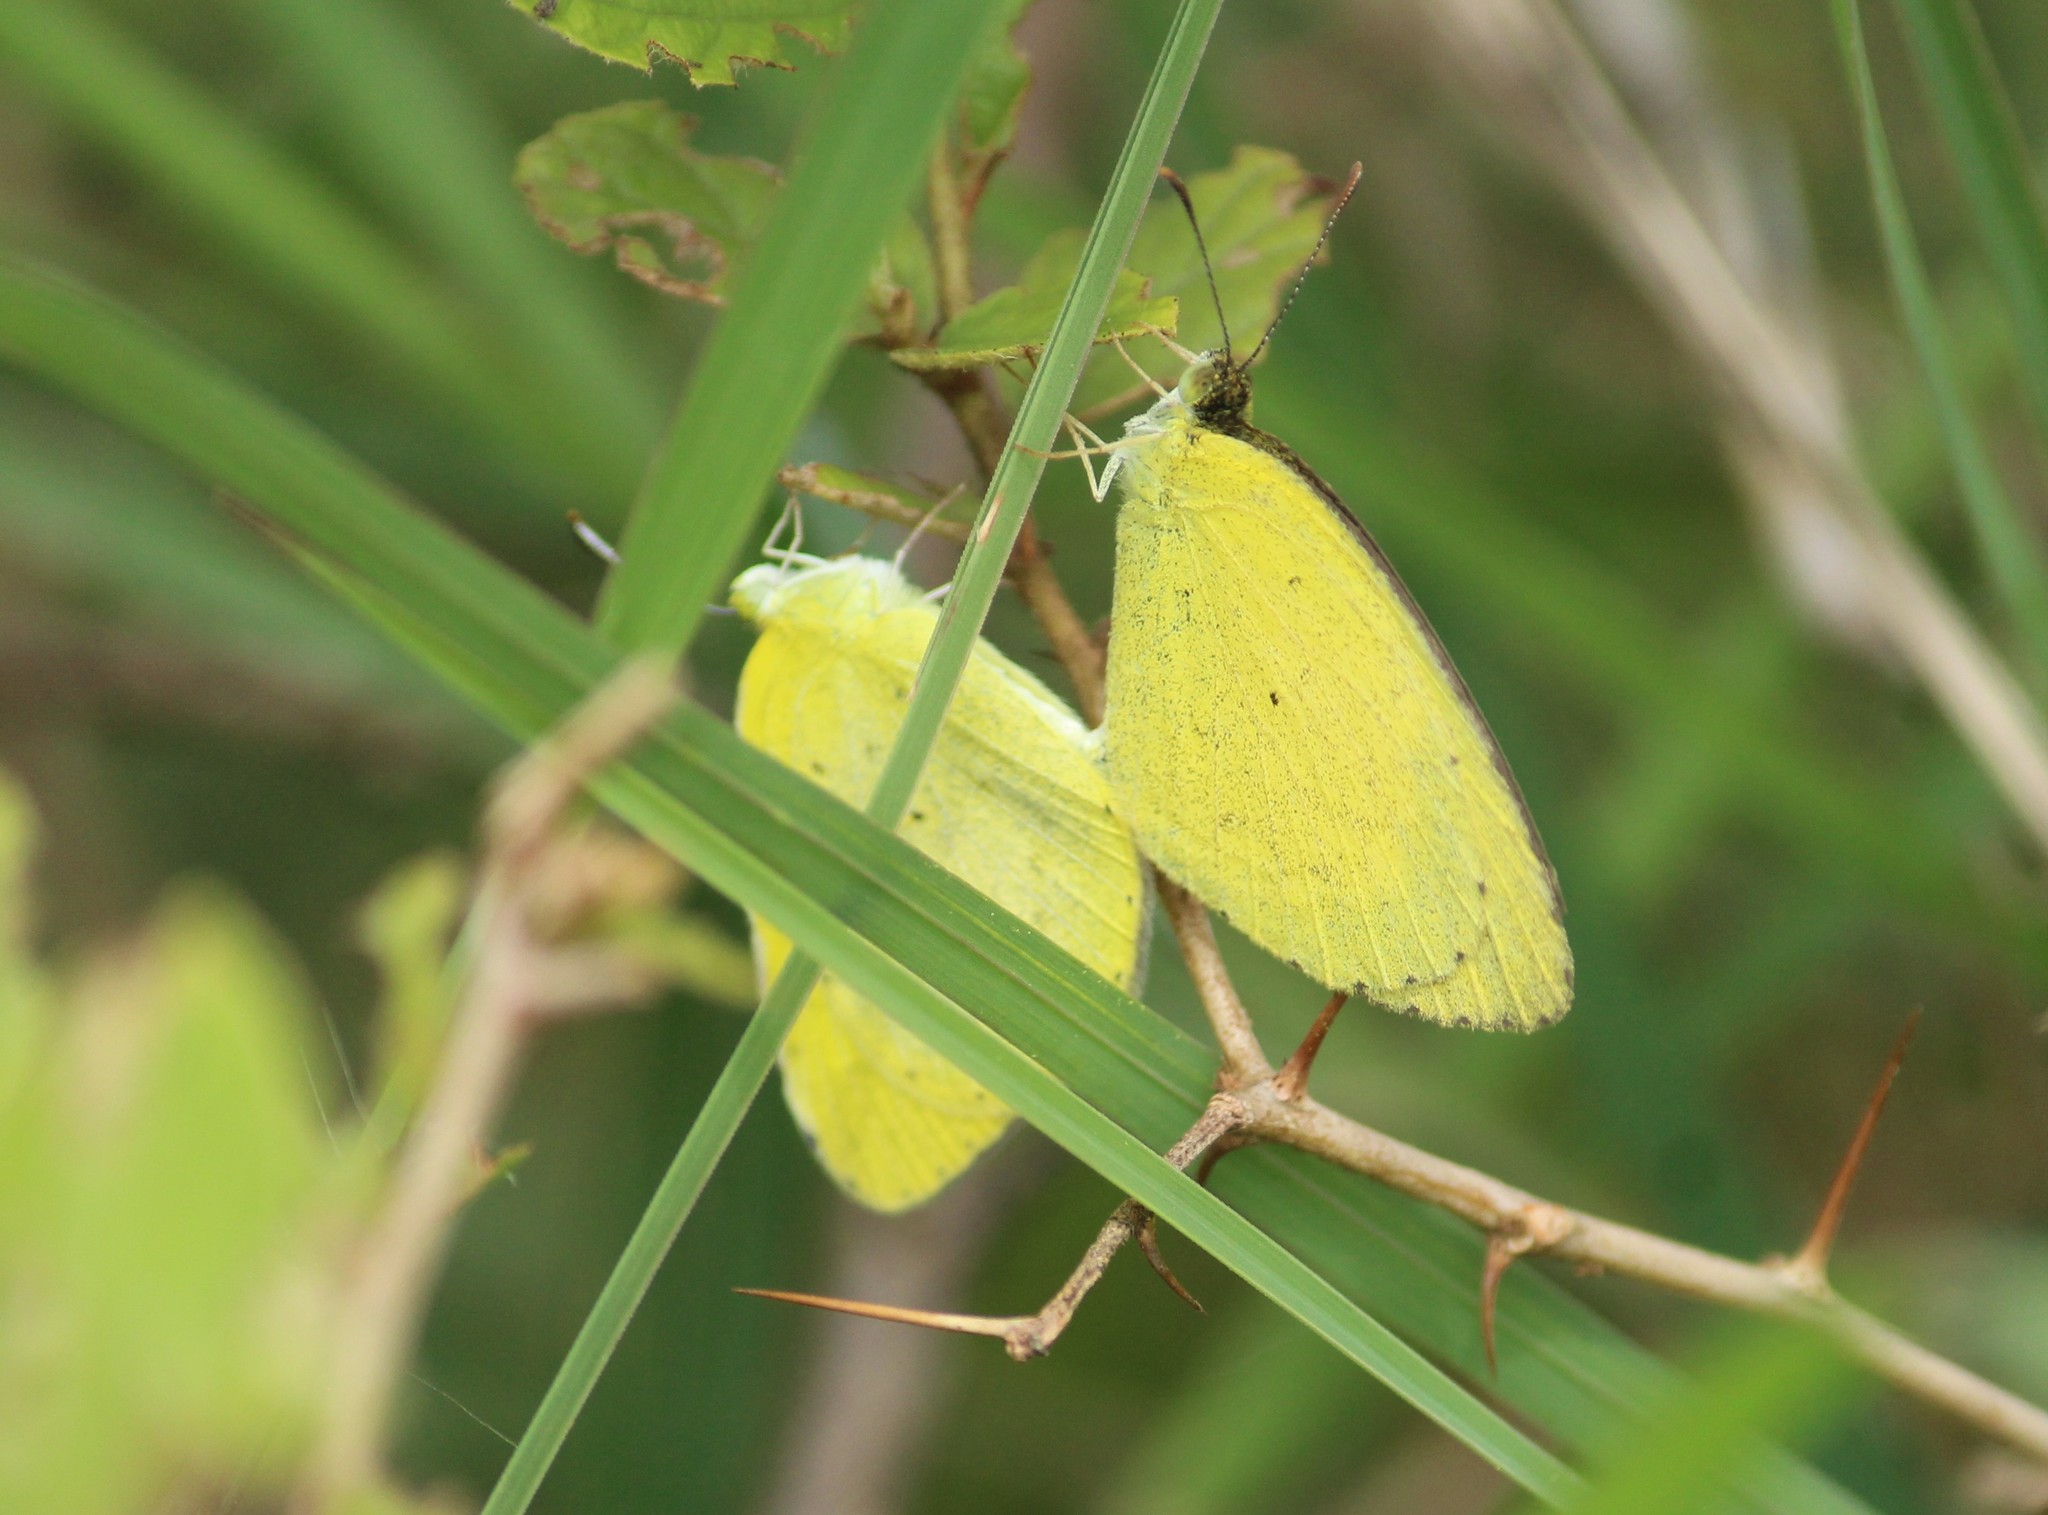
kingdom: Animalia
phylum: Arthropoda
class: Insecta
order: Lepidoptera
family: Pieridae
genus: Eurema
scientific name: Eurema brigitta
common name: Small grass yellow
